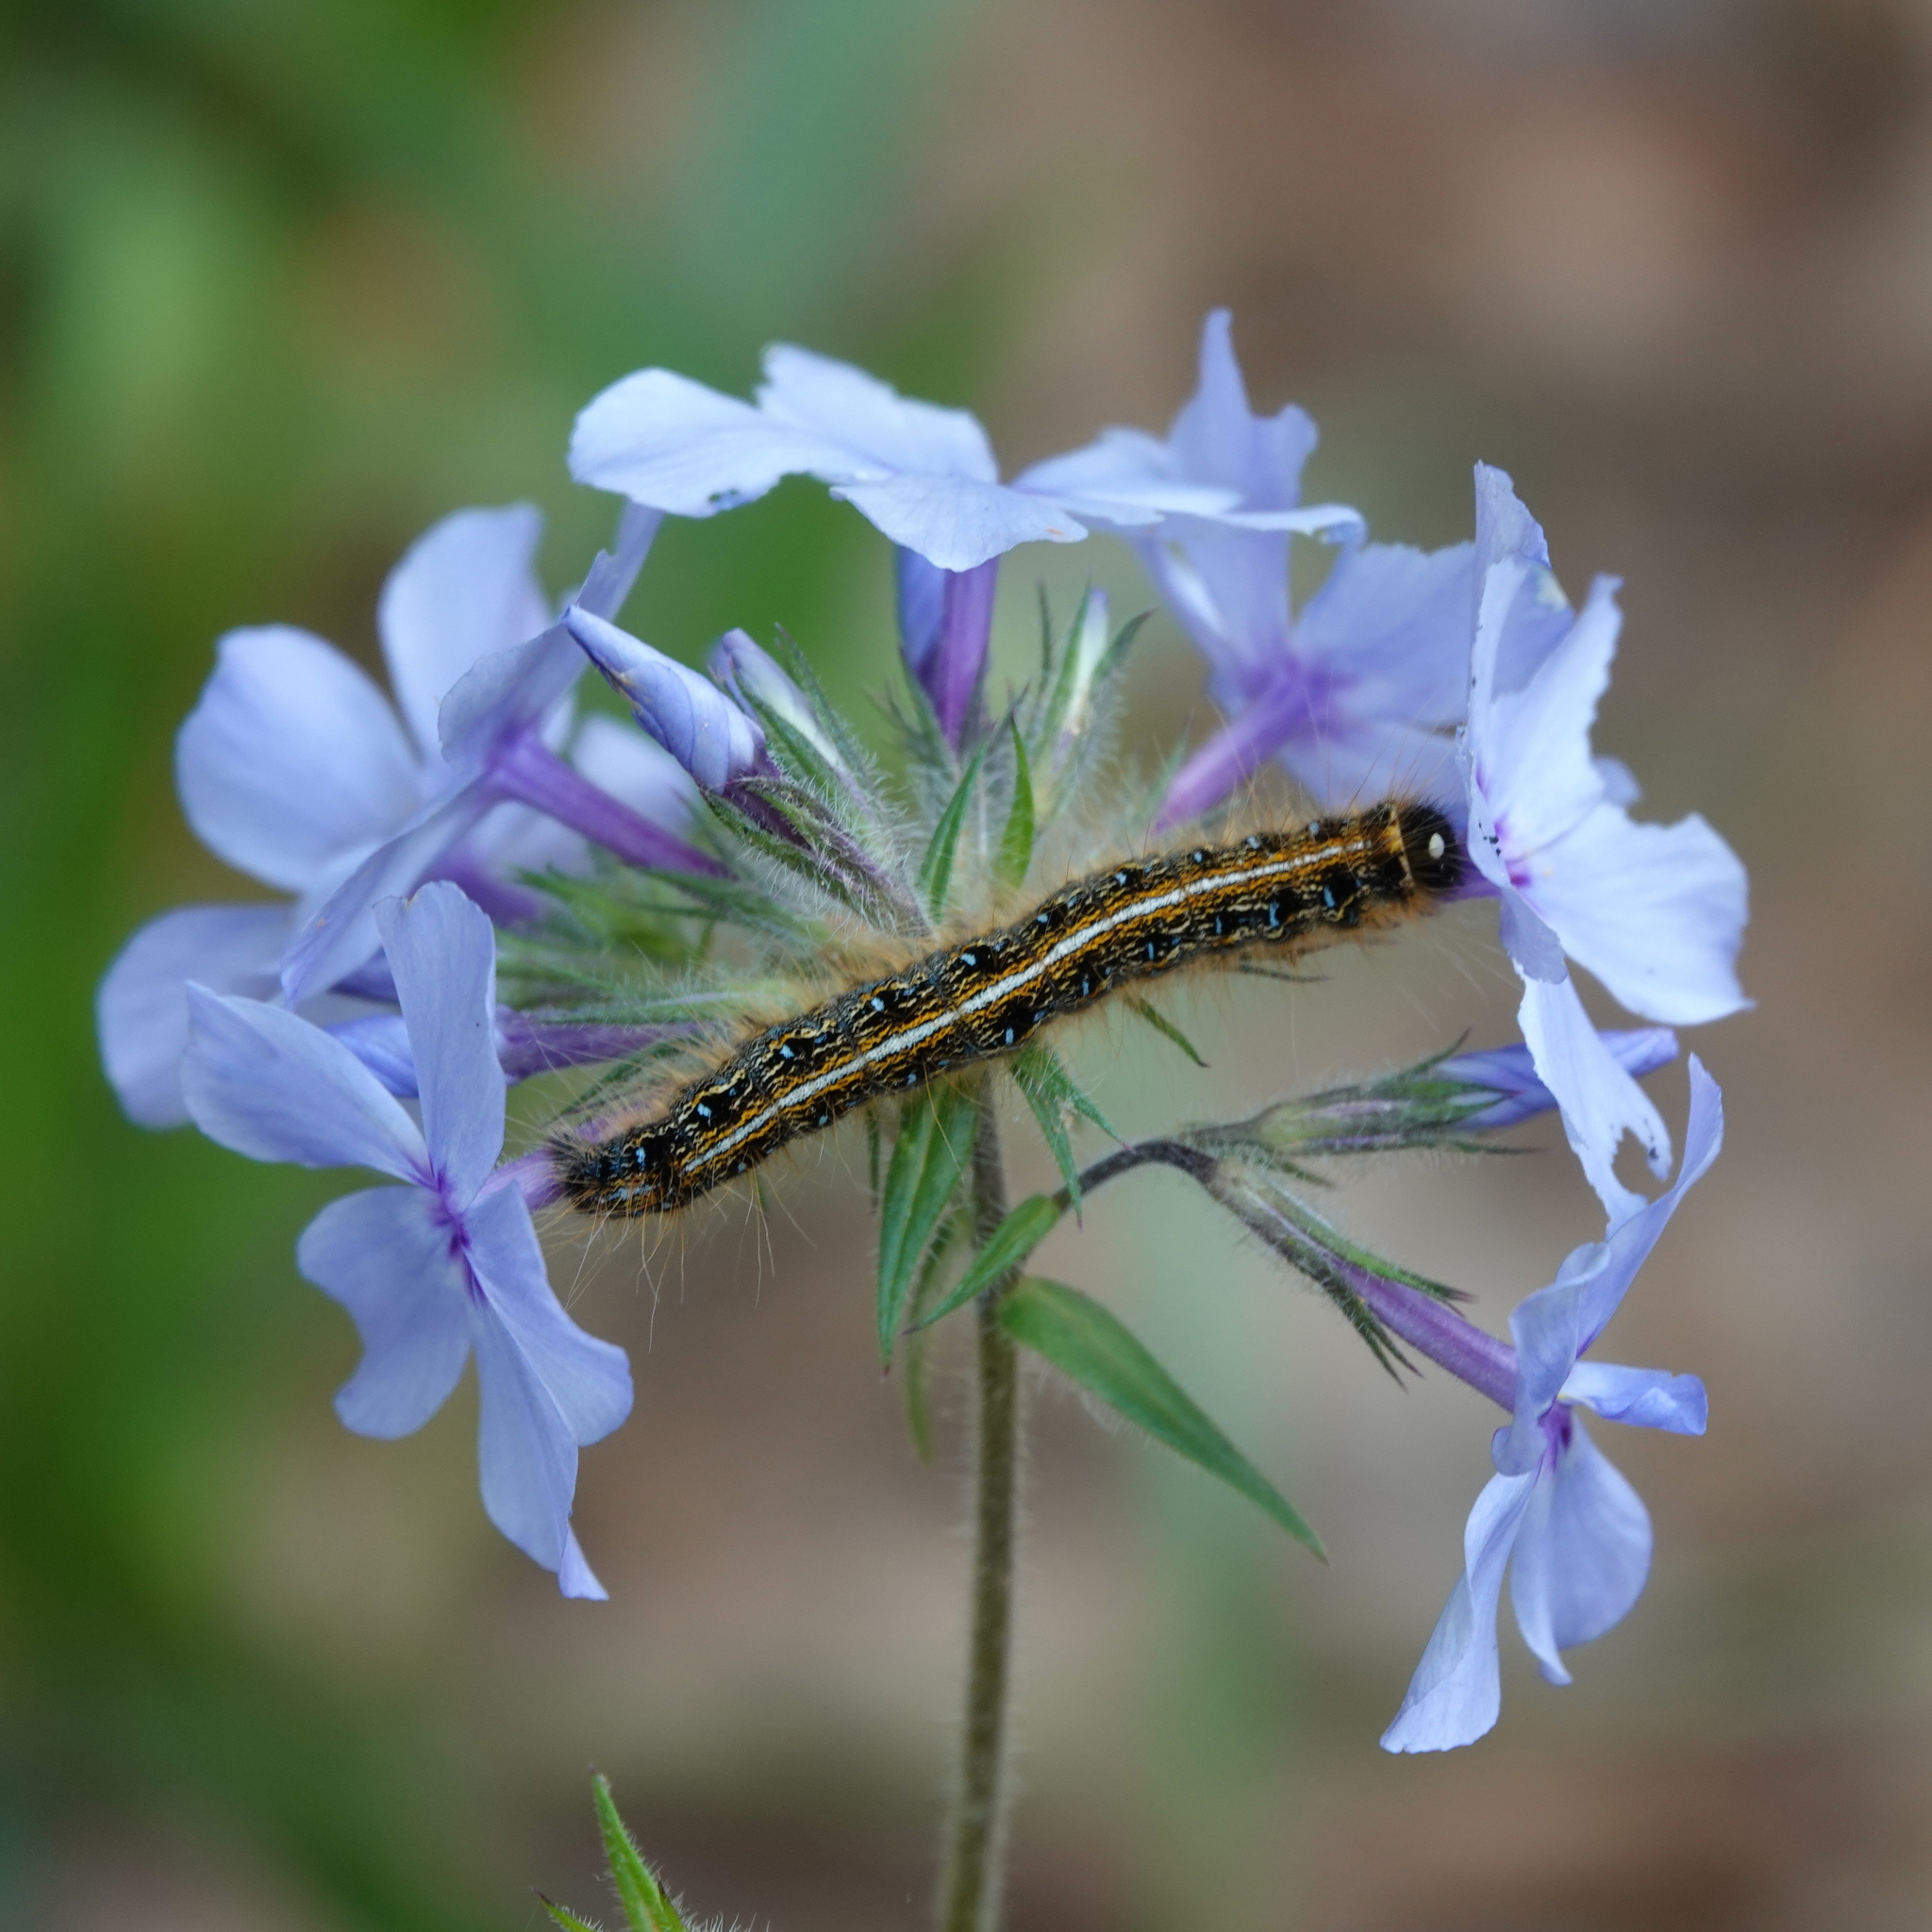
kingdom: Animalia
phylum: Arthropoda
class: Insecta
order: Lepidoptera
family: Lasiocampidae
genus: Malacosoma
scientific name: Malacosoma americana
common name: Eastern tent caterpillar moth
